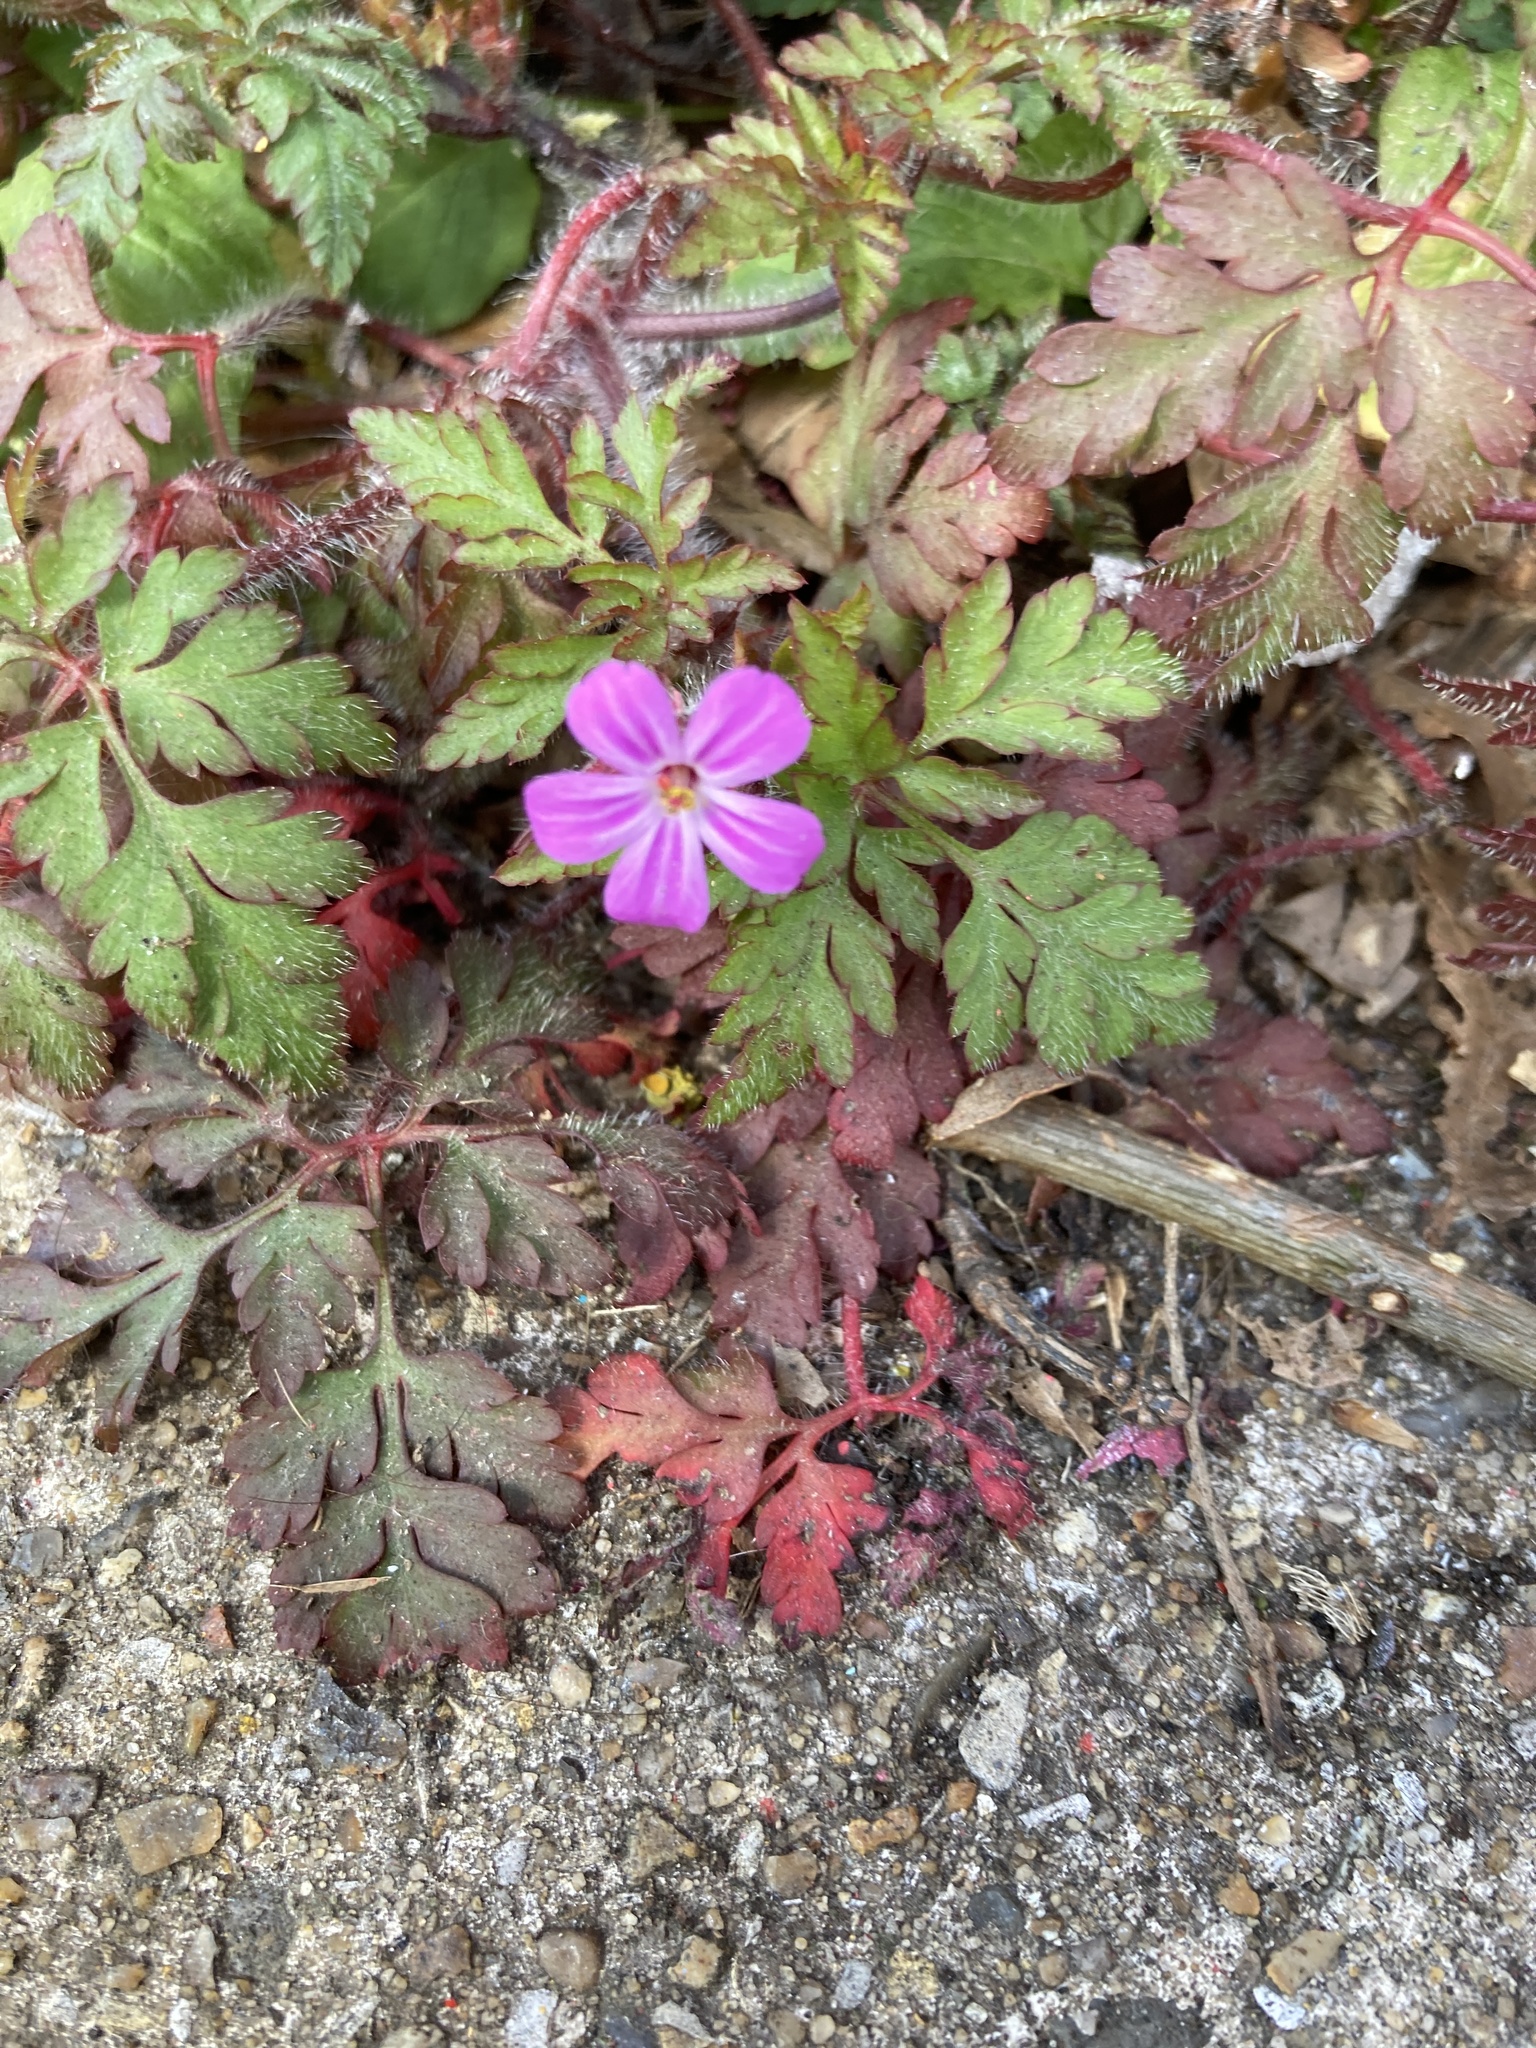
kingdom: Plantae
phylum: Tracheophyta
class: Magnoliopsida
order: Geraniales
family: Geraniaceae
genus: Geranium
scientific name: Geranium robertianum
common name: Herb-robert
